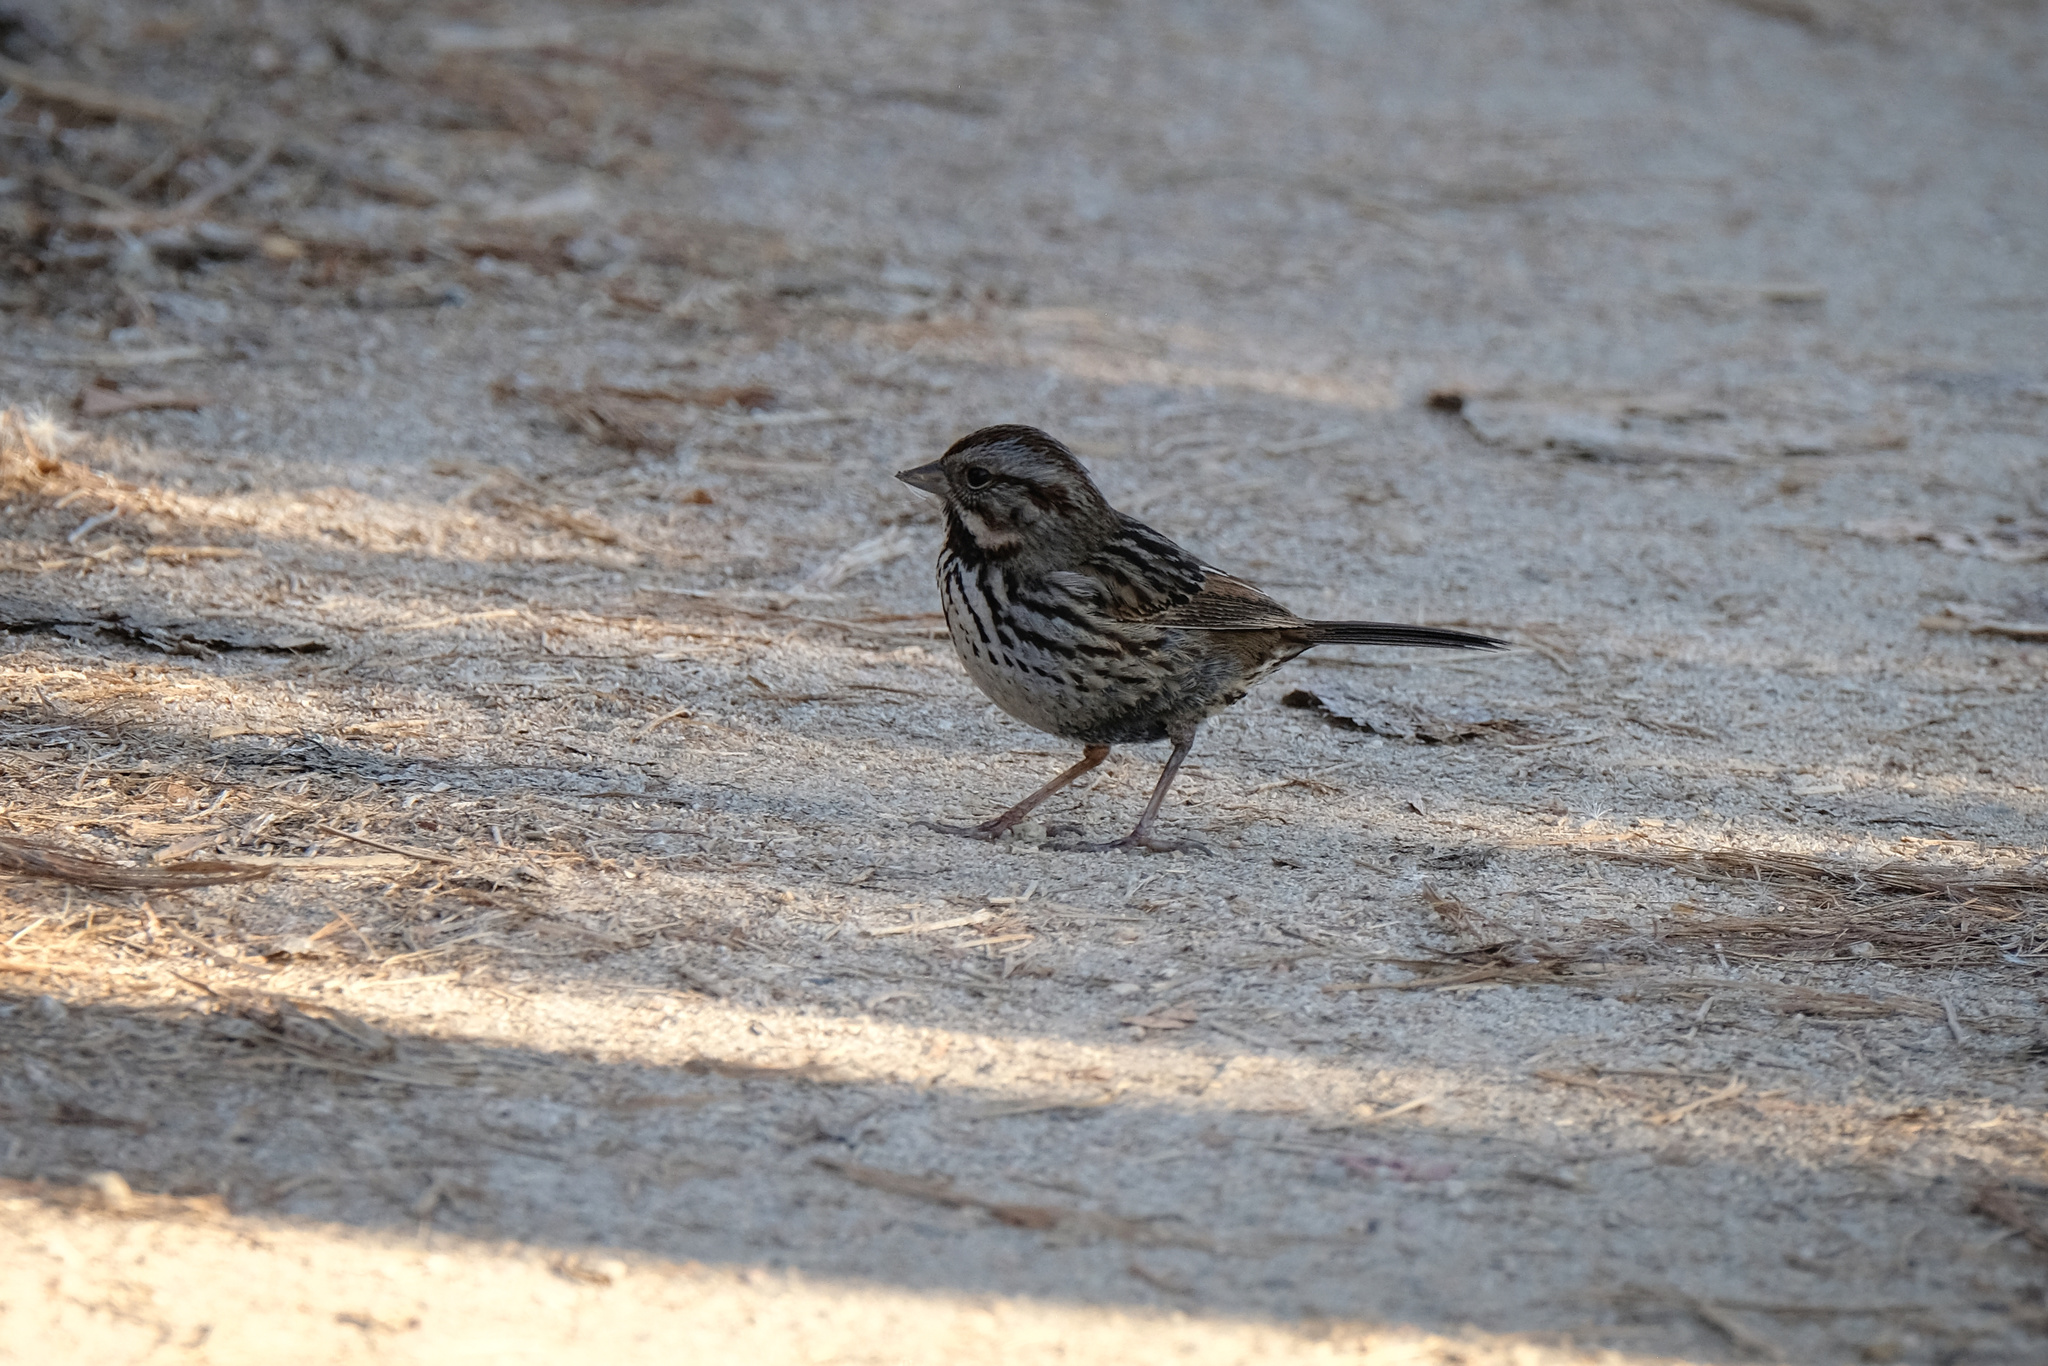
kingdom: Animalia
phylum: Chordata
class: Aves
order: Passeriformes
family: Passerellidae
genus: Melospiza
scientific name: Melospiza melodia
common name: Song sparrow
